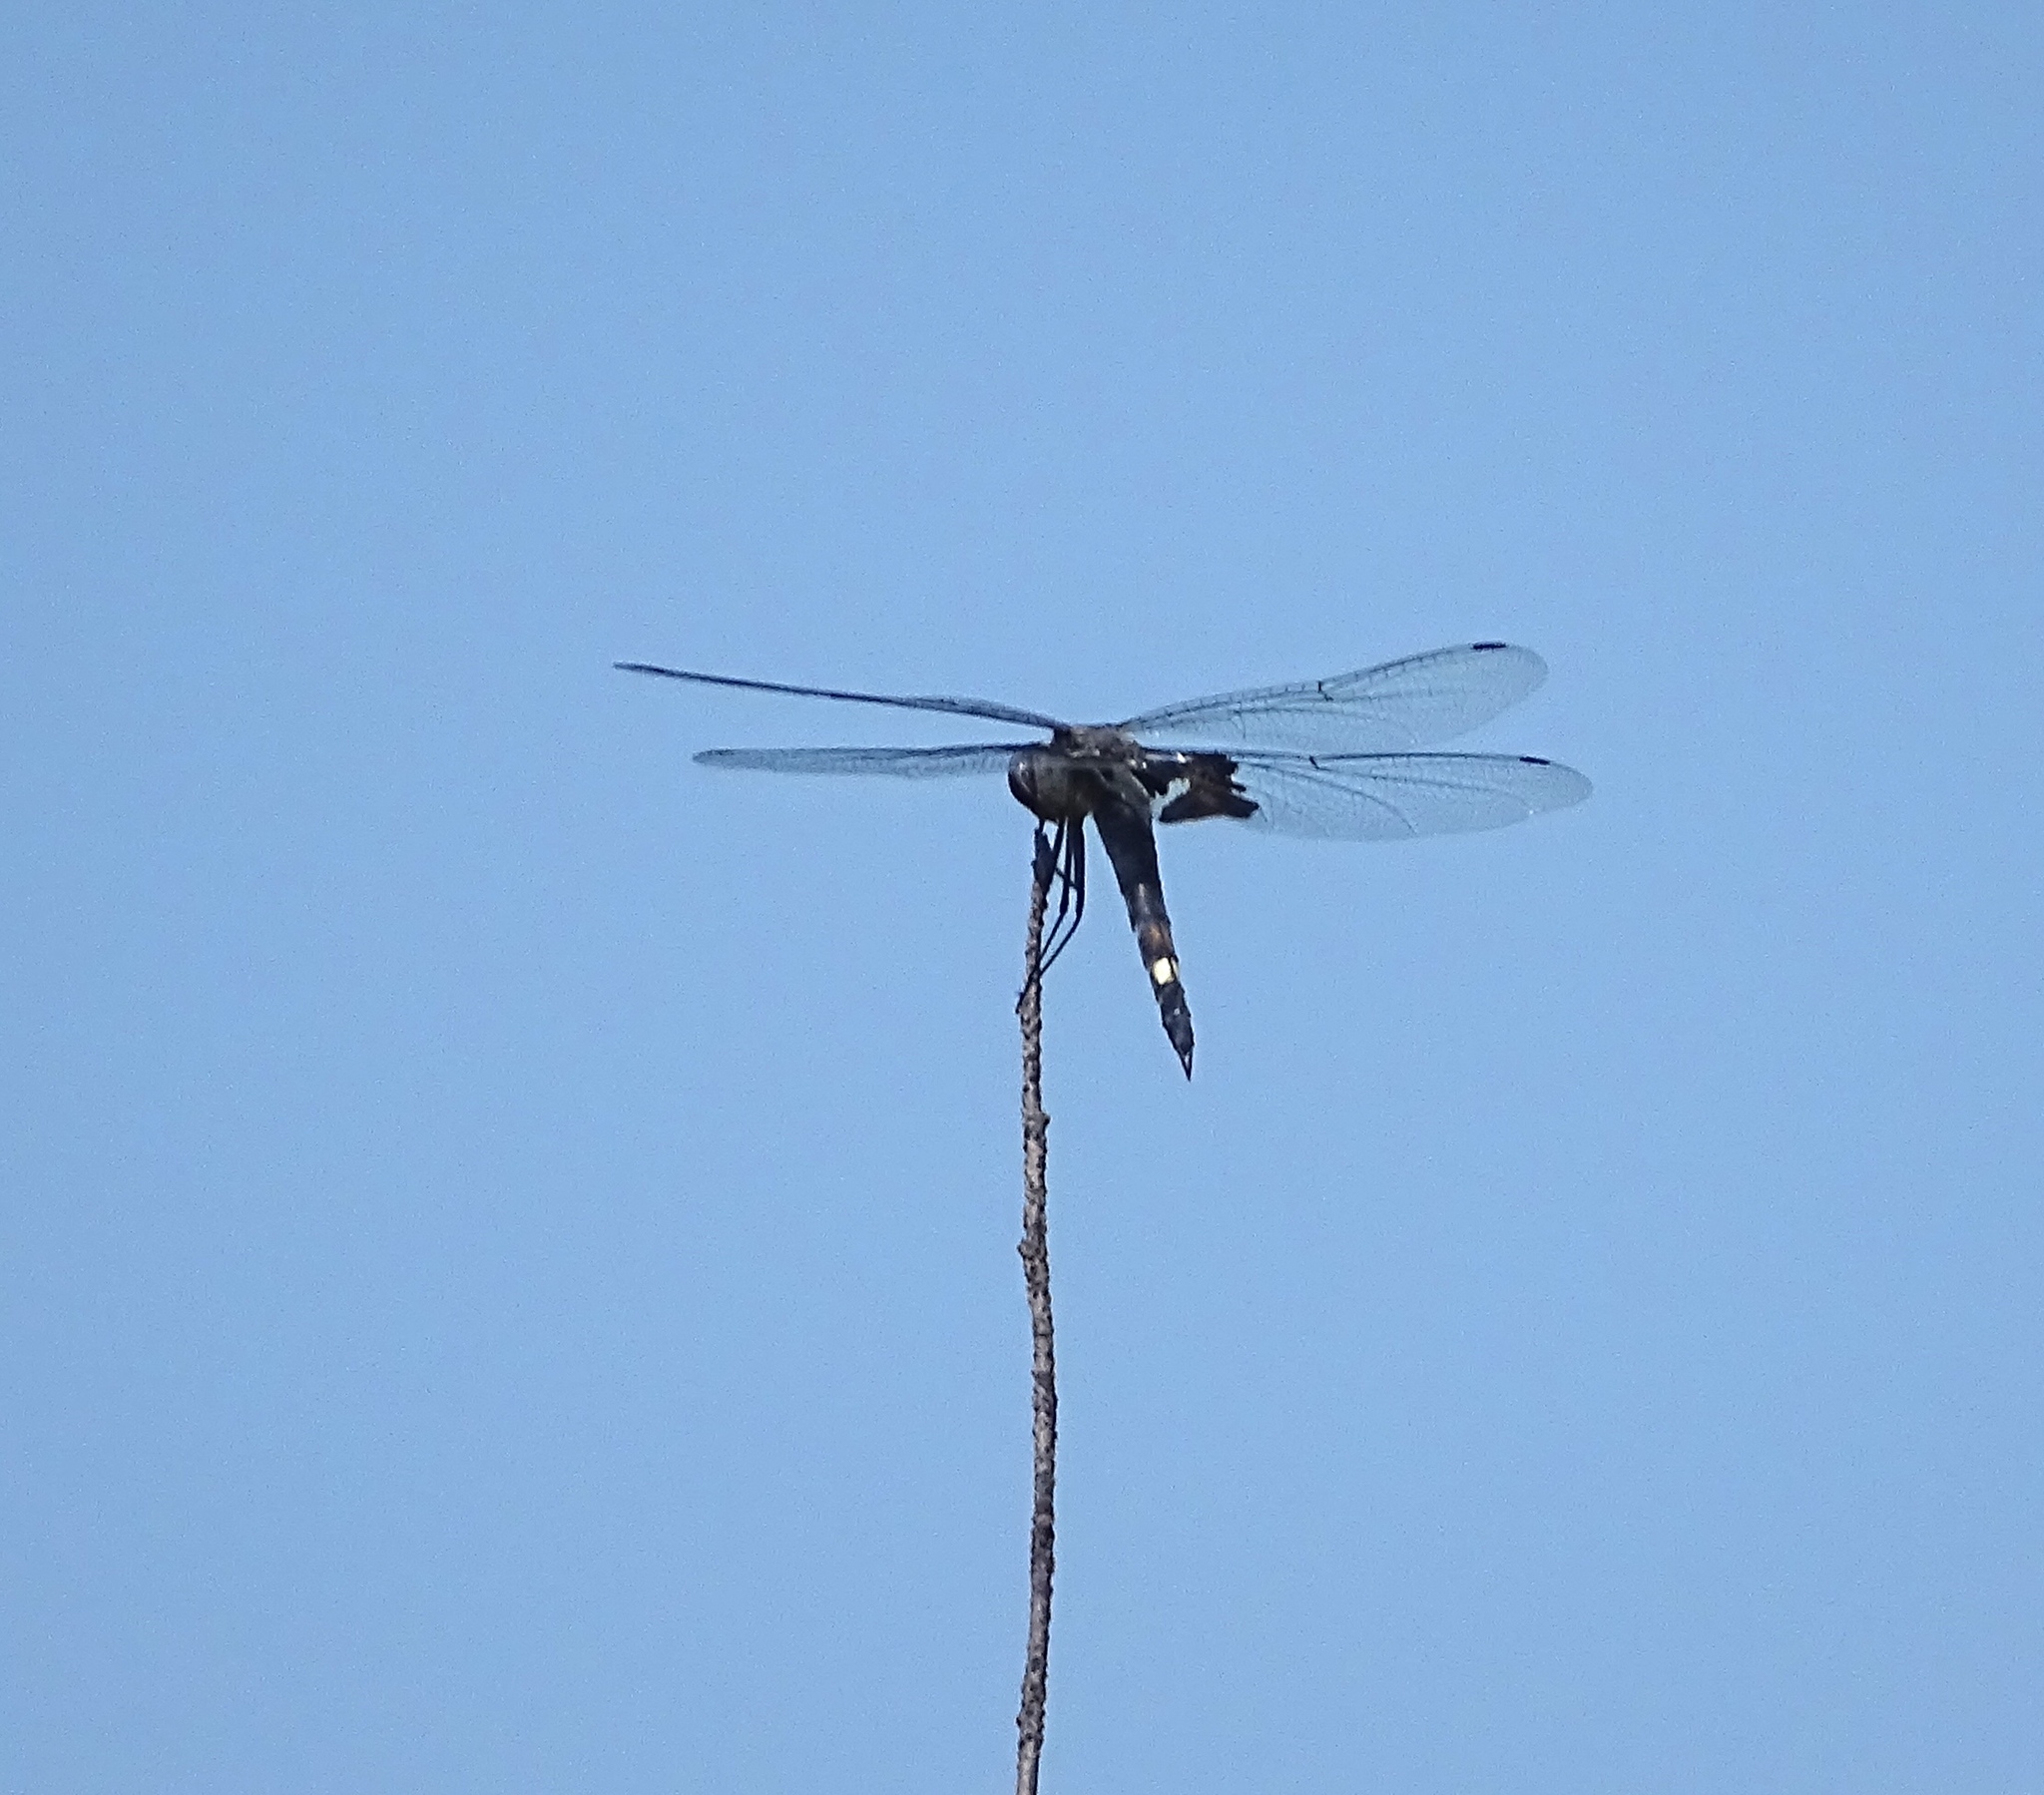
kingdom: Animalia
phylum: Arthropoda
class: Insecta
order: Odonata
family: Libellulidae
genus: Tramea
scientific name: Tramea lacerata
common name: Black saddlebags
